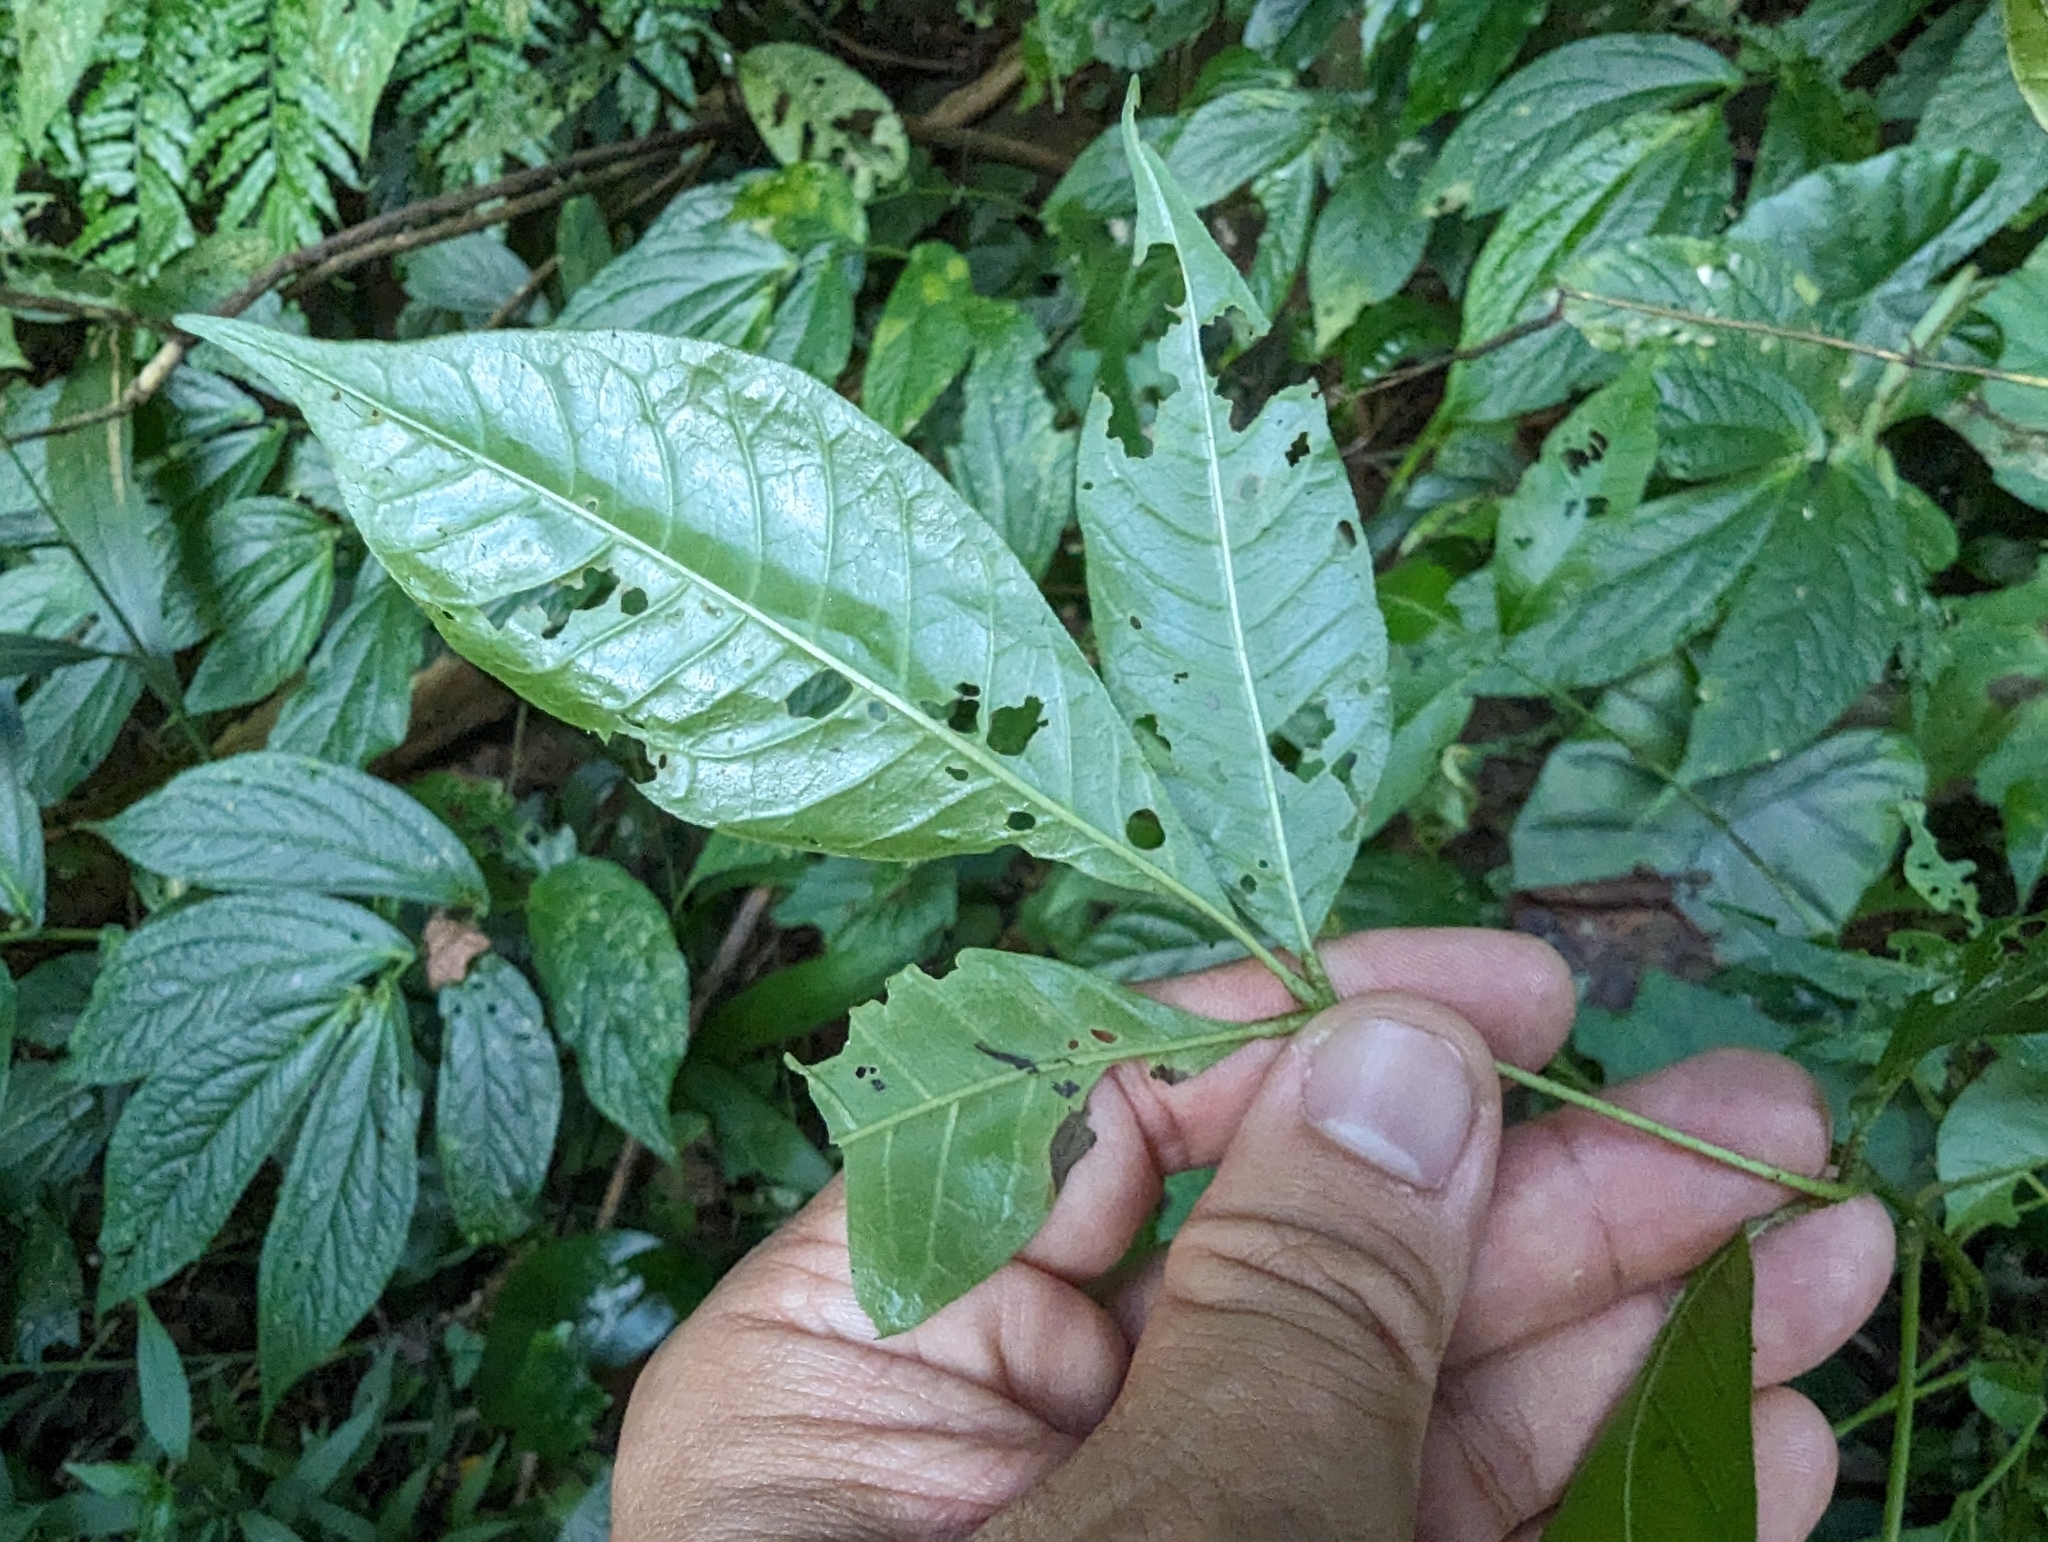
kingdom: Plantae
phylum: Tracheophyta
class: Magnoliopsida
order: Sapindales
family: Rutaceae
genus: Tetradium
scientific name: Tetradium ruticarpum
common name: Evodia
